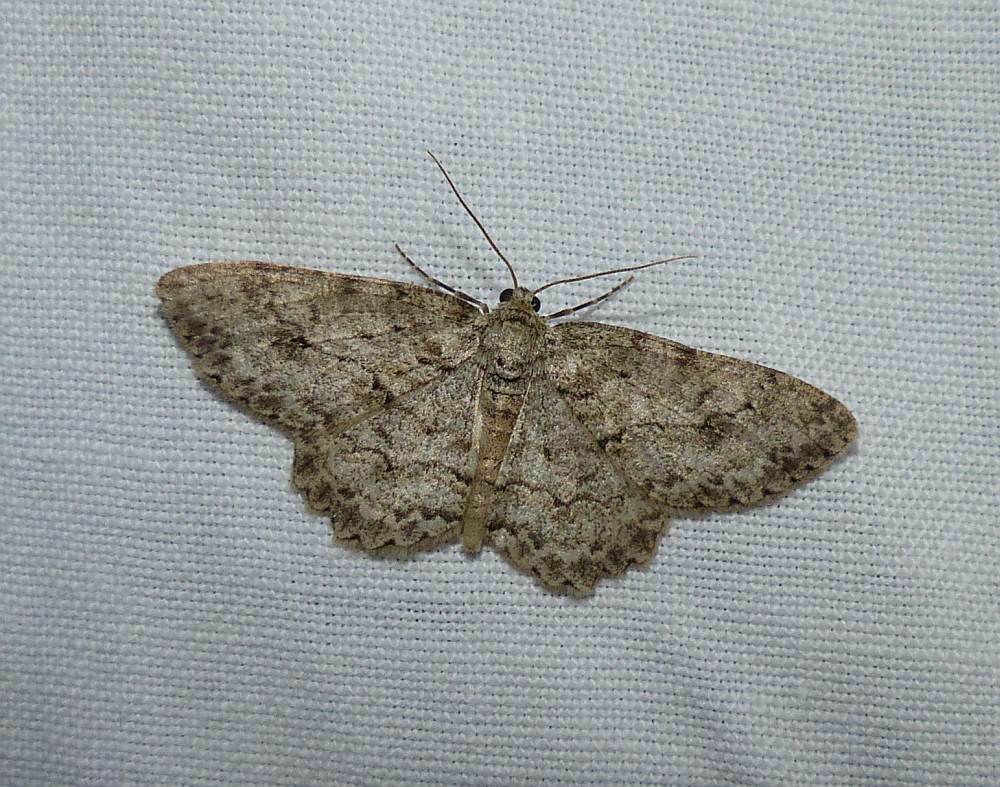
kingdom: Animalia
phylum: Arthropoda
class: Insecta
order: Lepidoptera
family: Geometridae
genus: Ectropis
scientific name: Ectropis crepuscularia
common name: Engrailed
